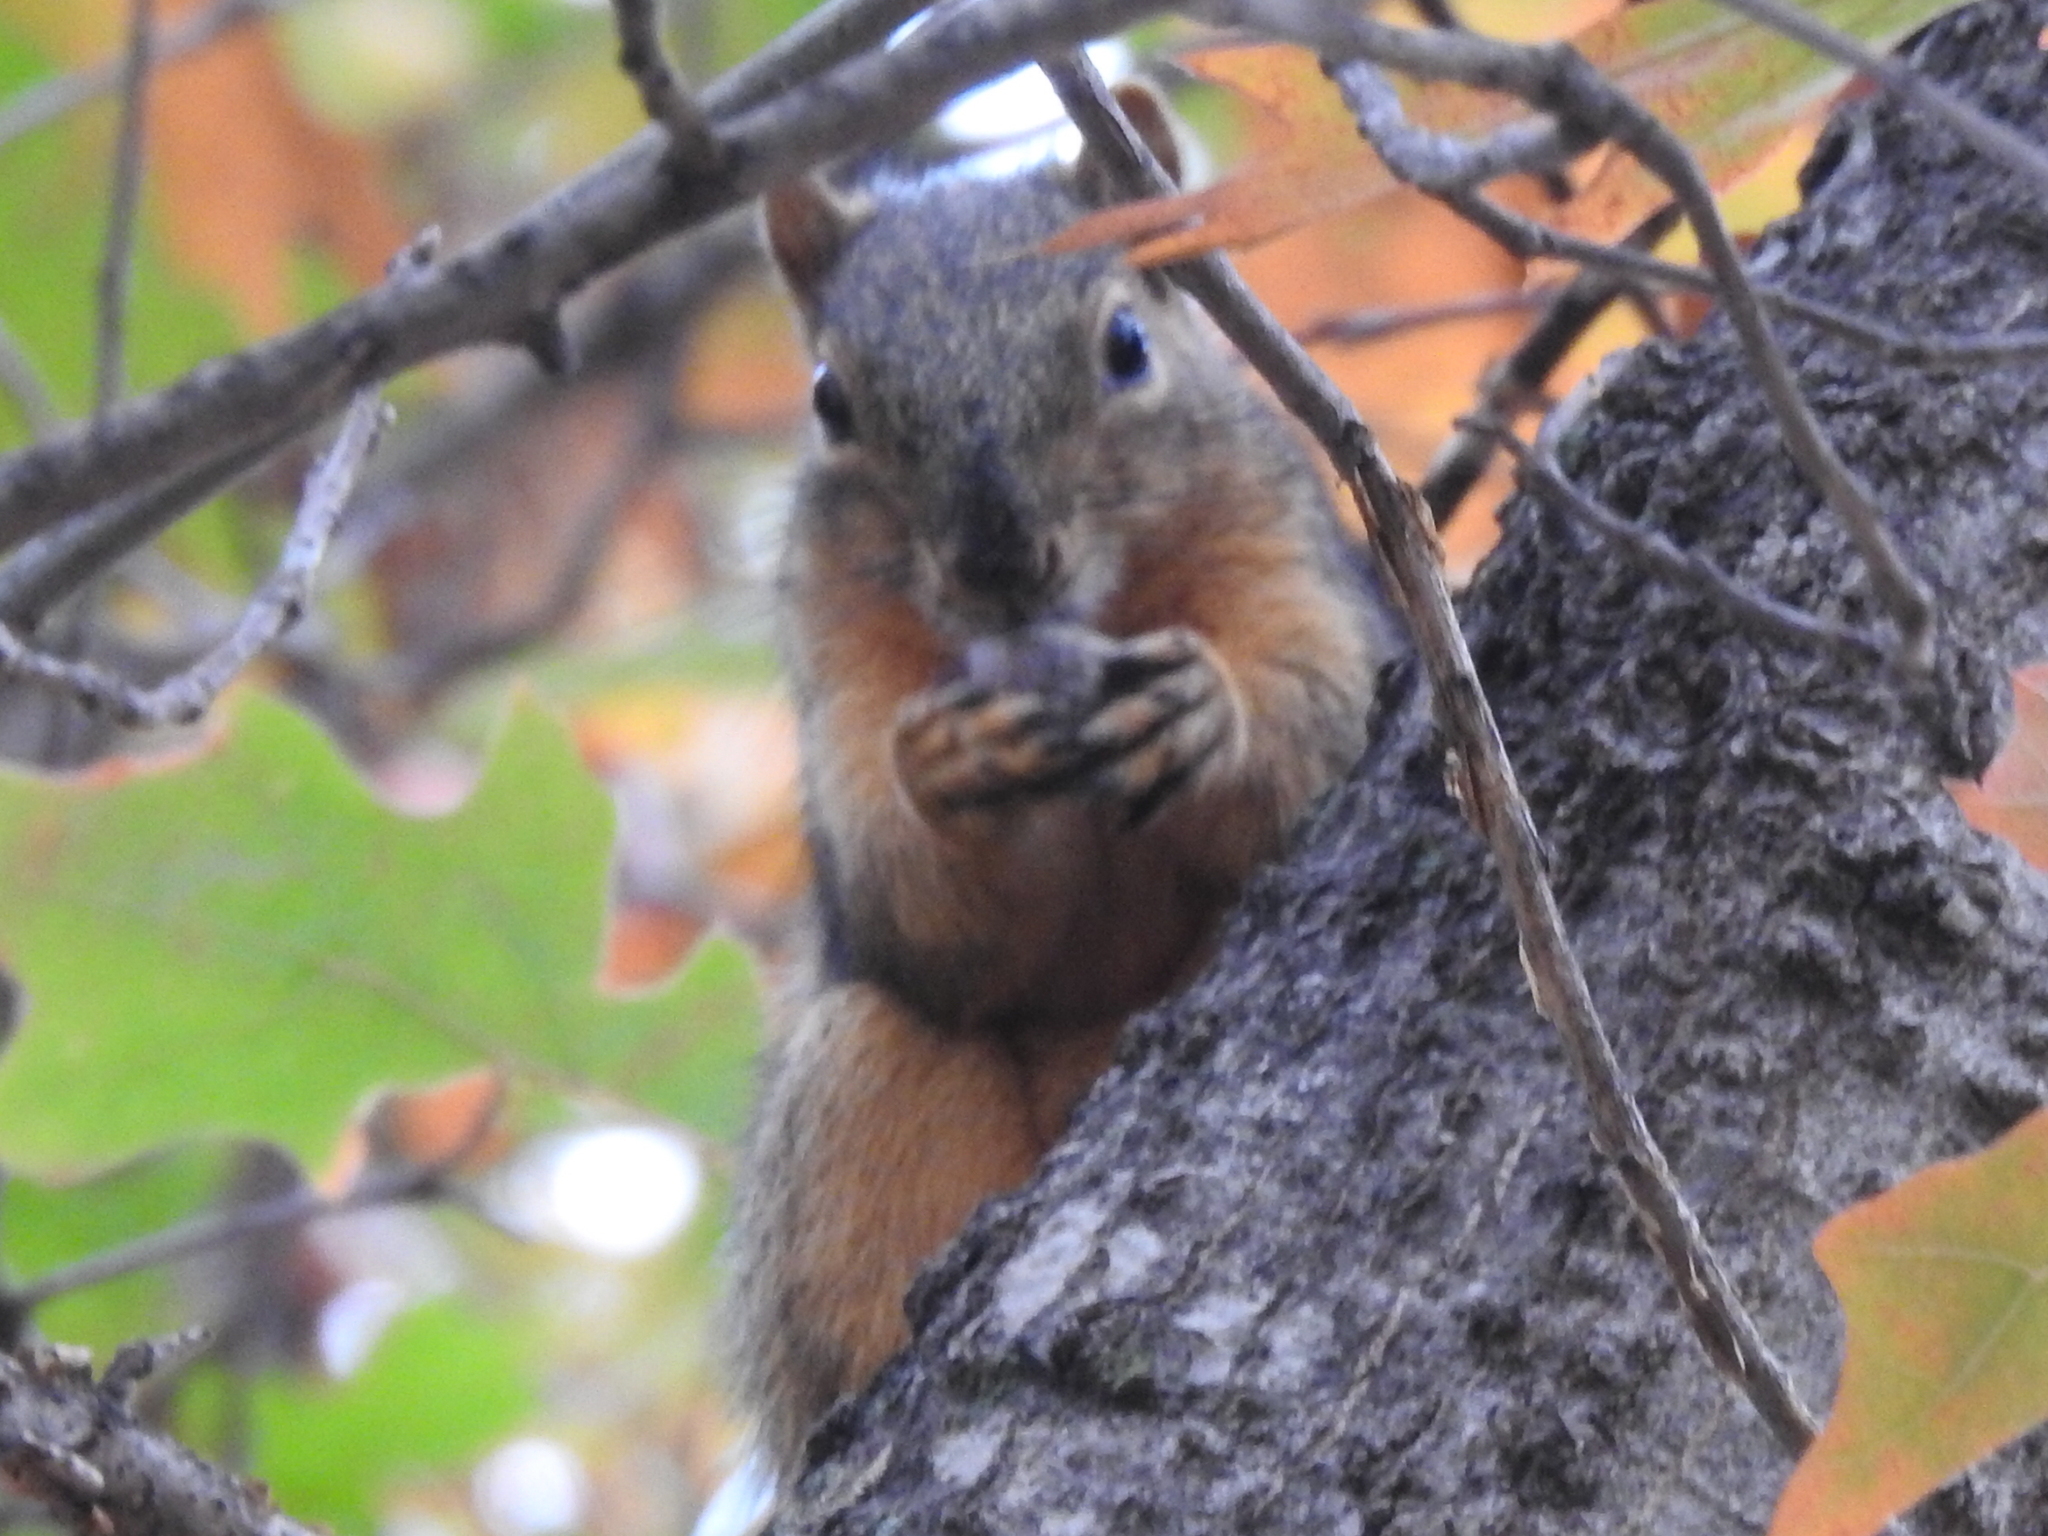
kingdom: Animalia
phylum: Chordata
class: Mammalia
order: Rodentia
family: Sciuridae
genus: Sciurus
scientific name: Sciurus niger
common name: Fox squirrel
